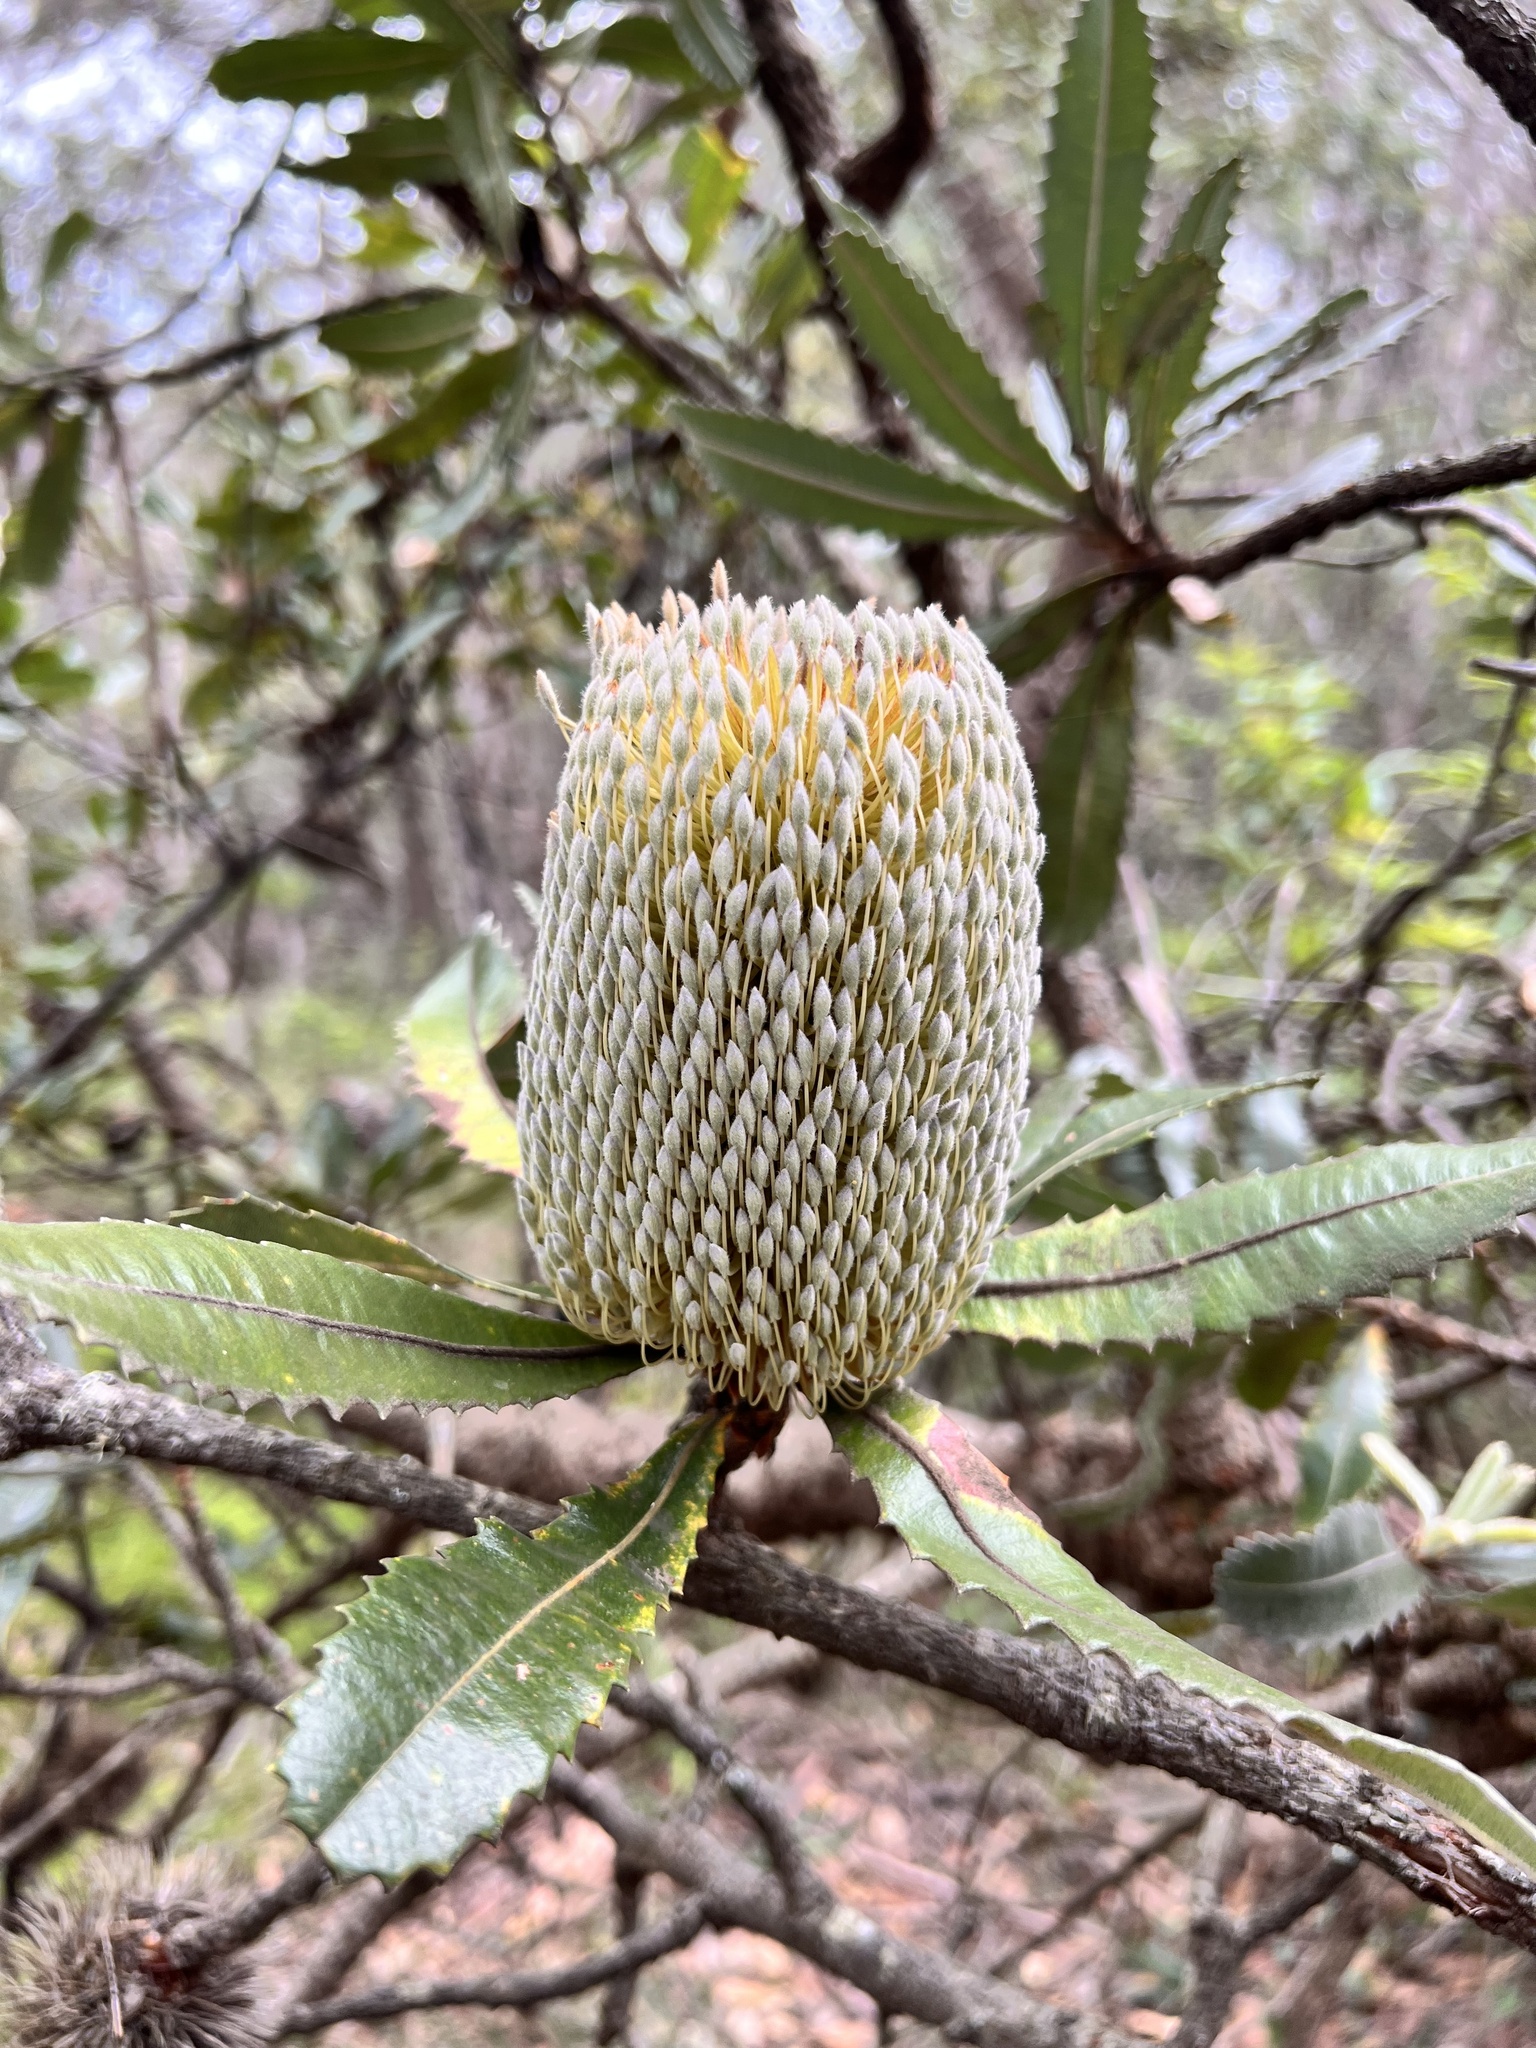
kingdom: Plantae
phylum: Tracheophyta
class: Magnoliopsida
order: Proteales
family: Proteaceae
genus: Banksia
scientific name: Banksia serrata
